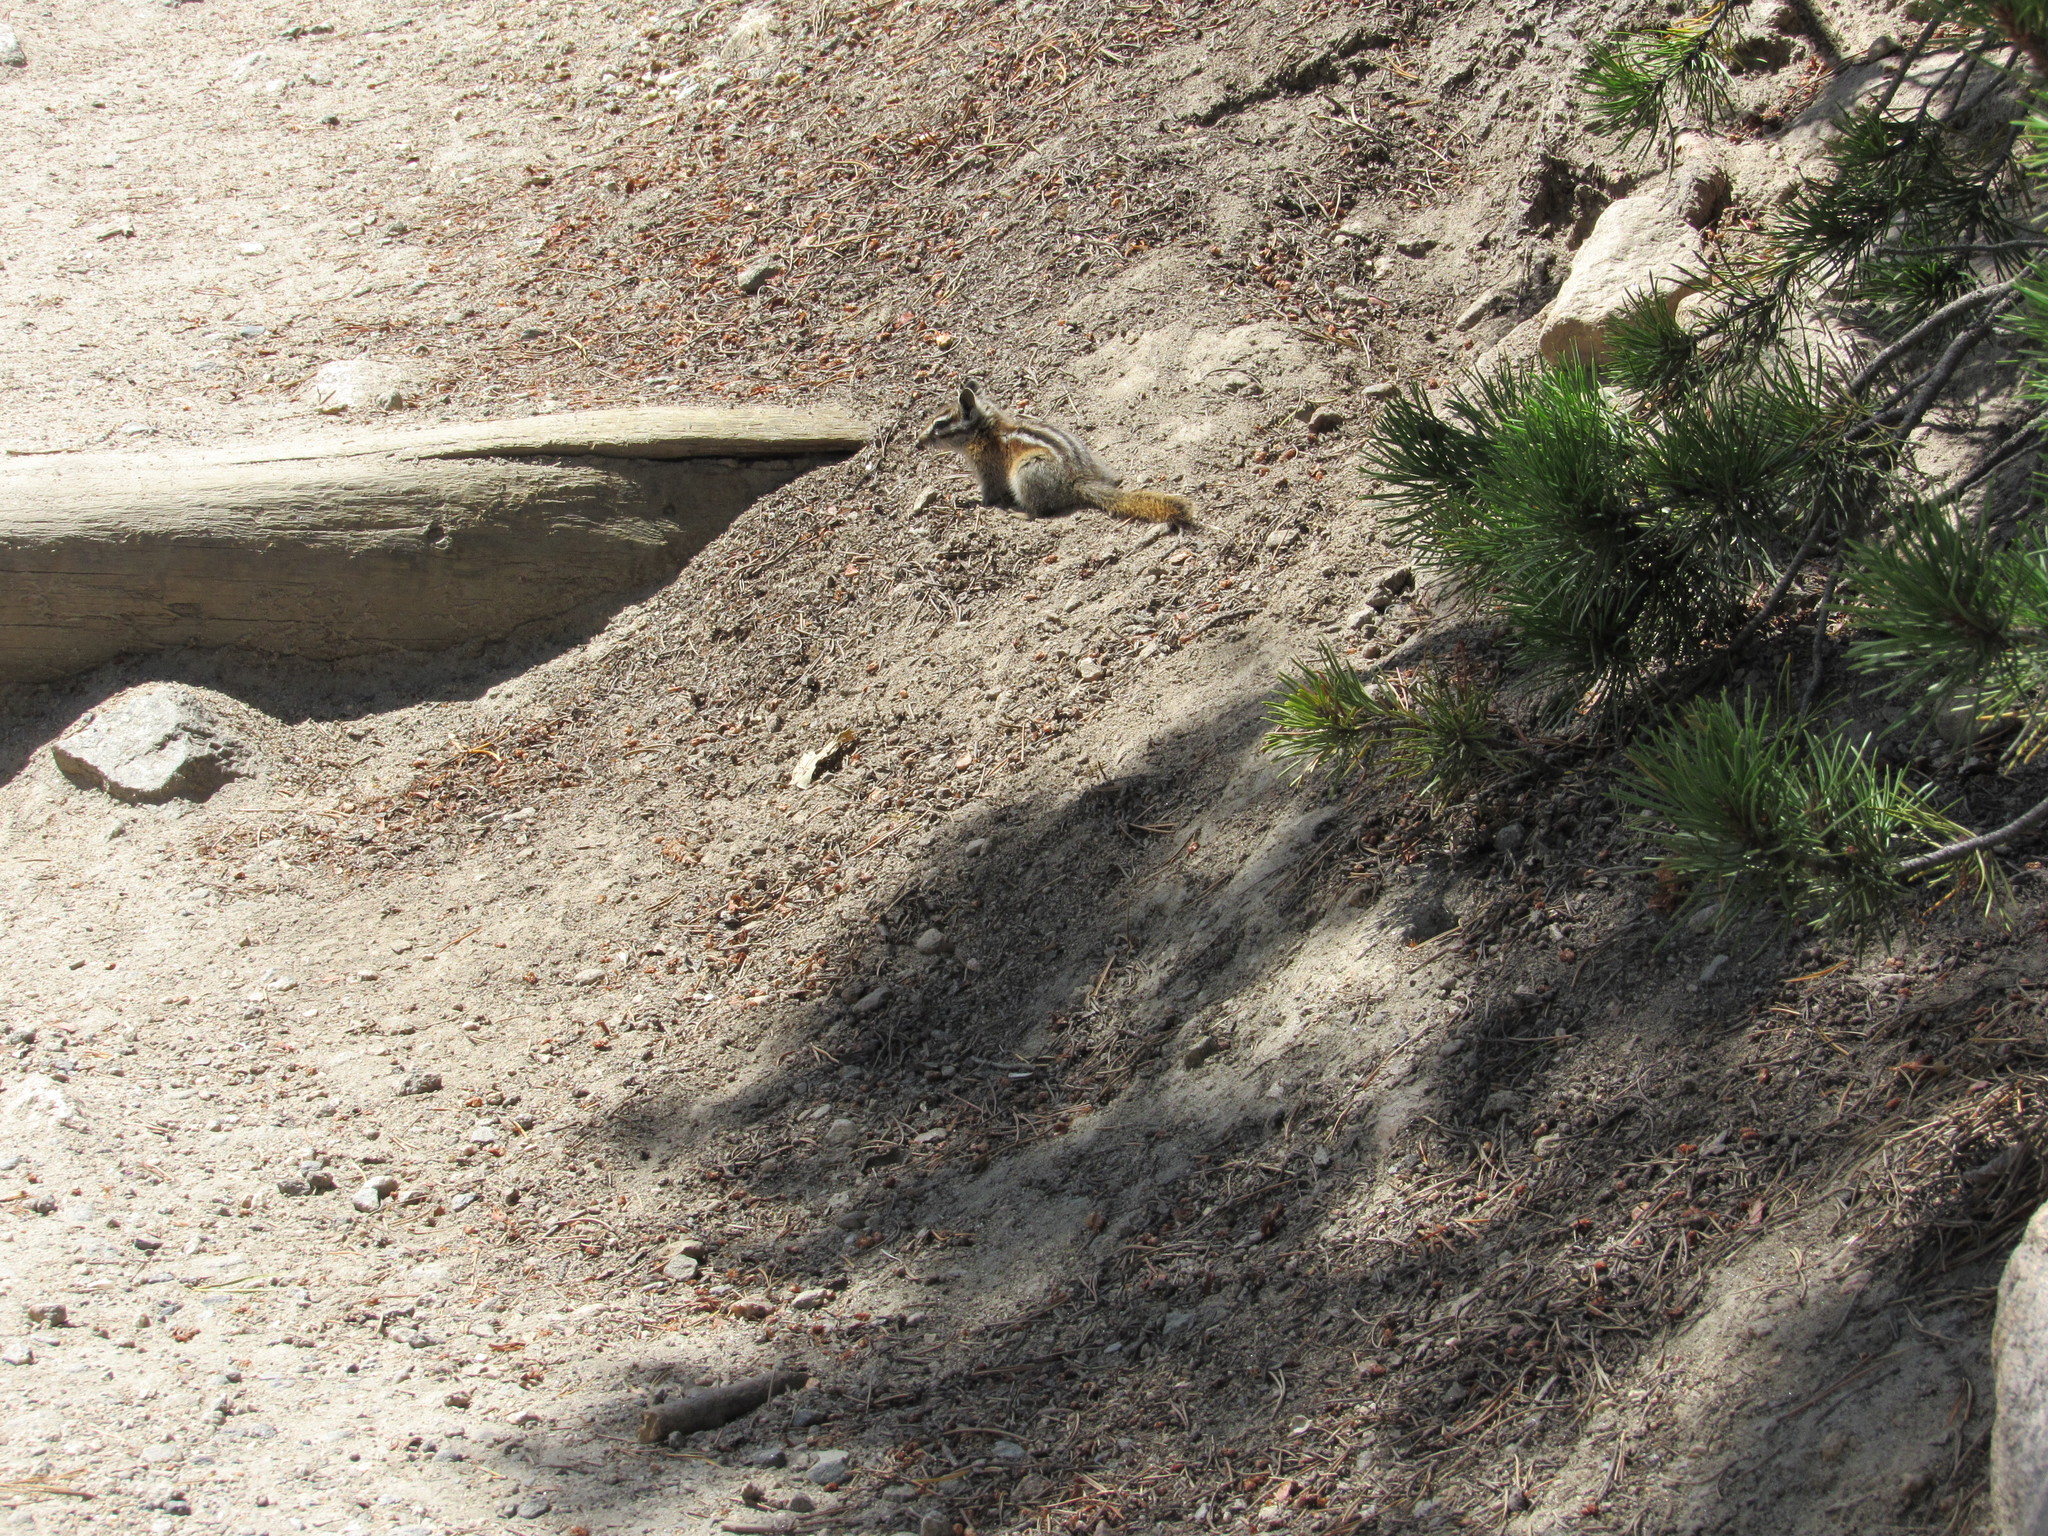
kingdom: Animalia
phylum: Chordata
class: Mammalia
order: Rodentia
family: Sciuridae
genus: Tamias
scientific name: Tamias minimus
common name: Least chipmunk
